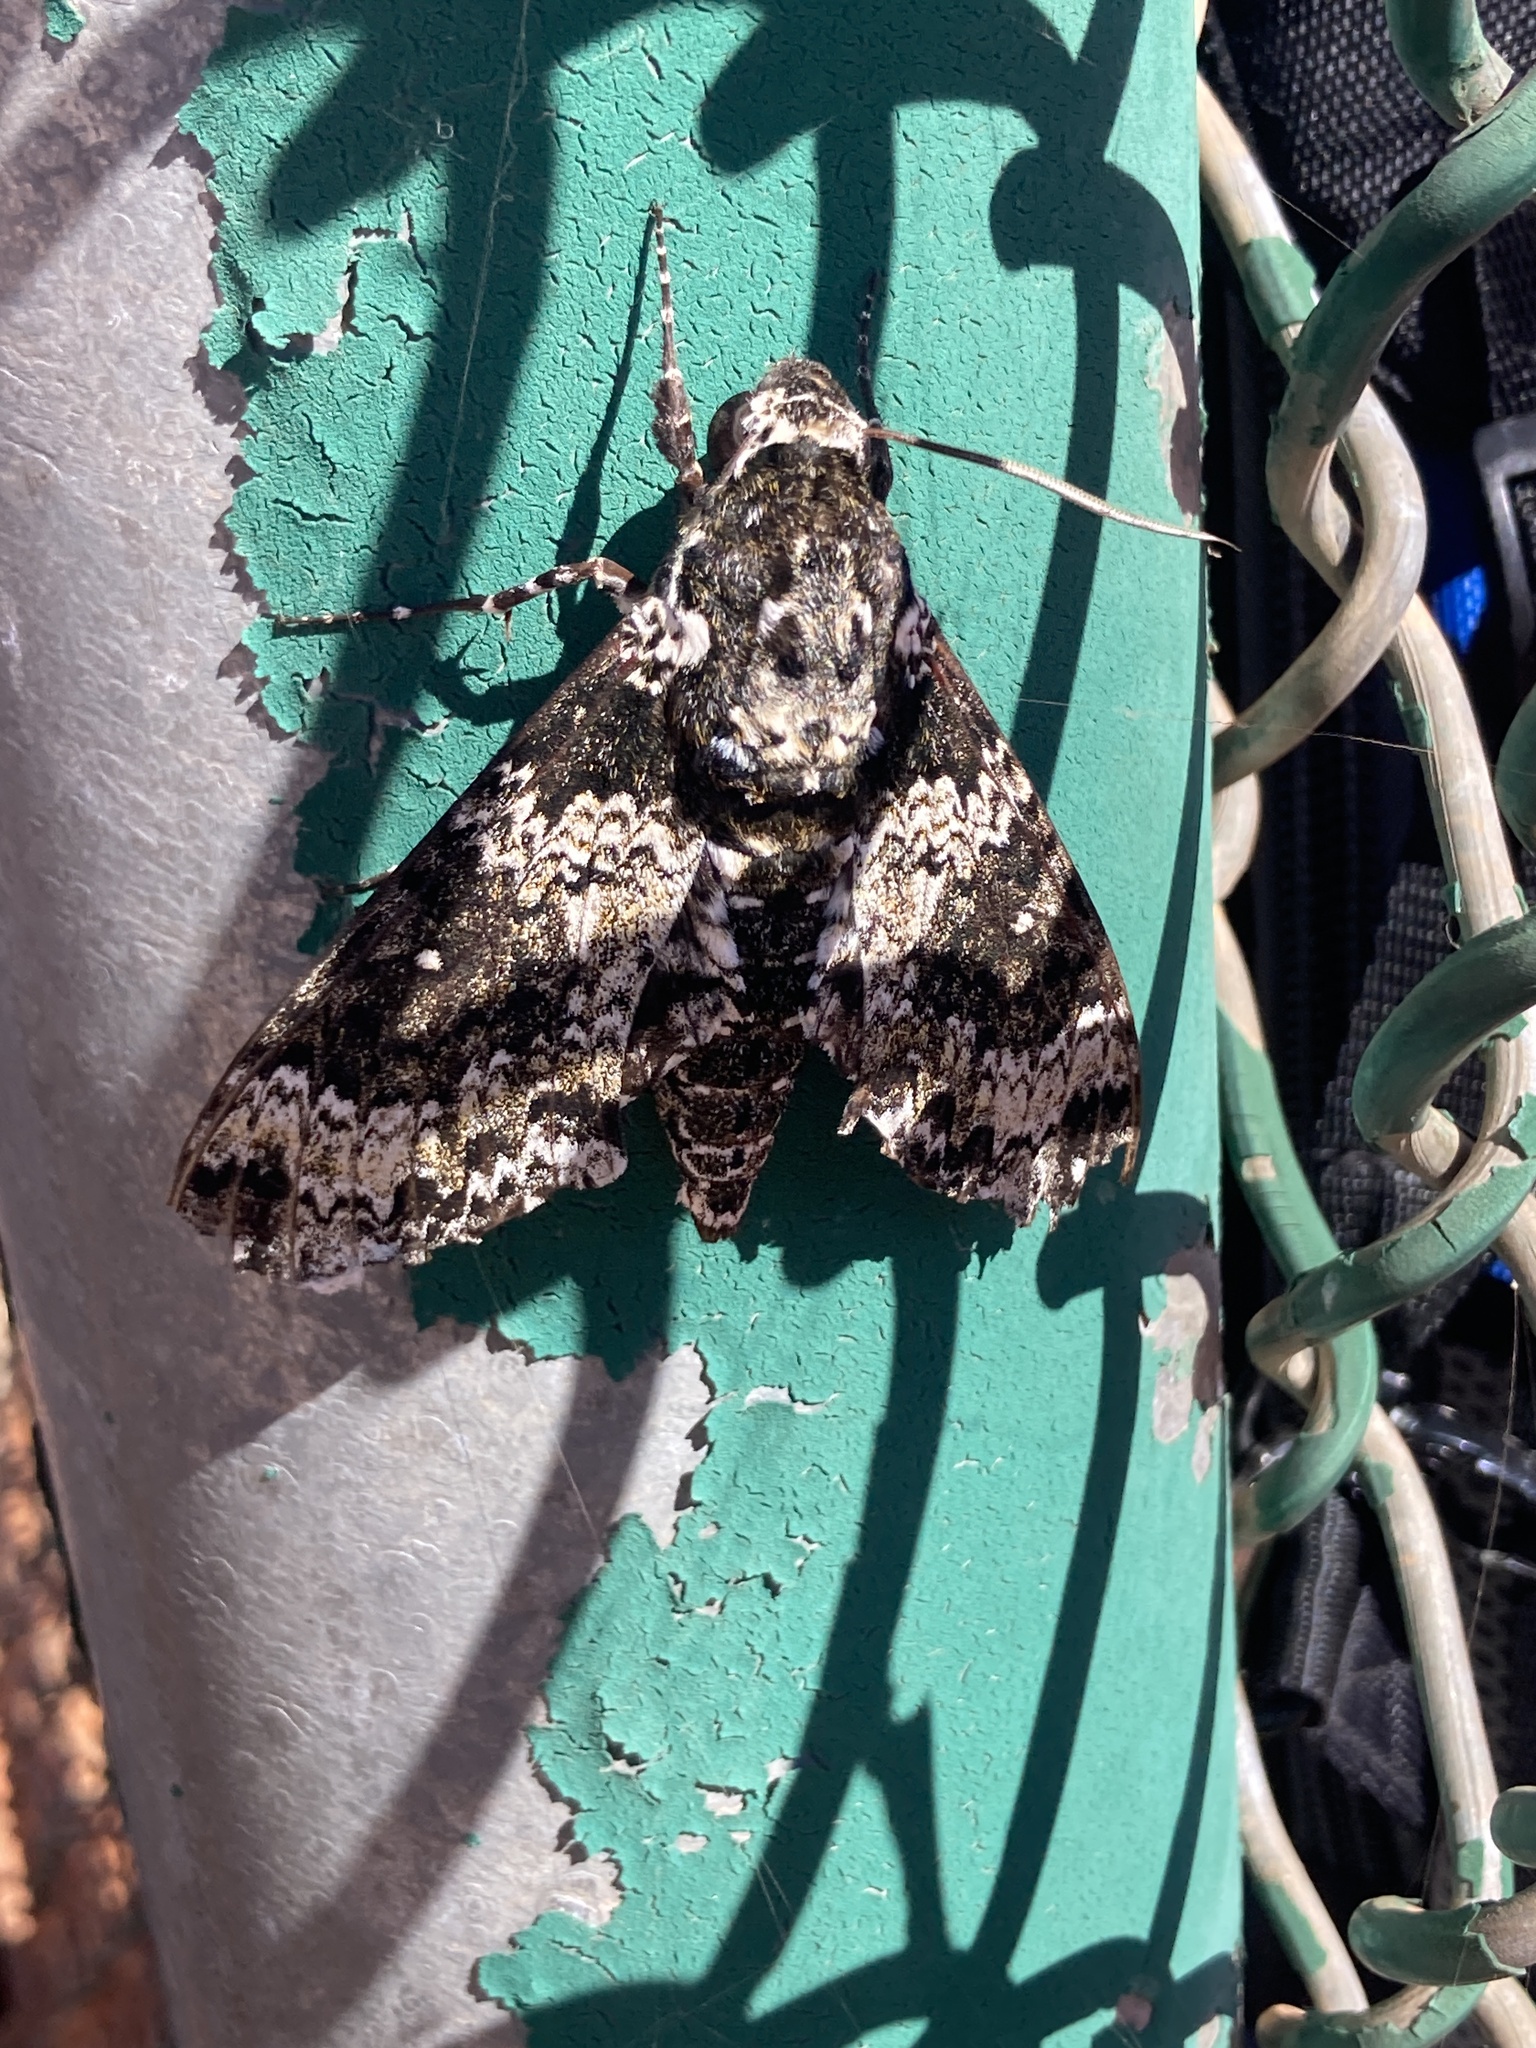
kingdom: Animalia
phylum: Arthropoda
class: Insecta
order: Lepidoptera
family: Sphingidae
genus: Manduca
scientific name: Manduca rustica
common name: Rustic sphinx
